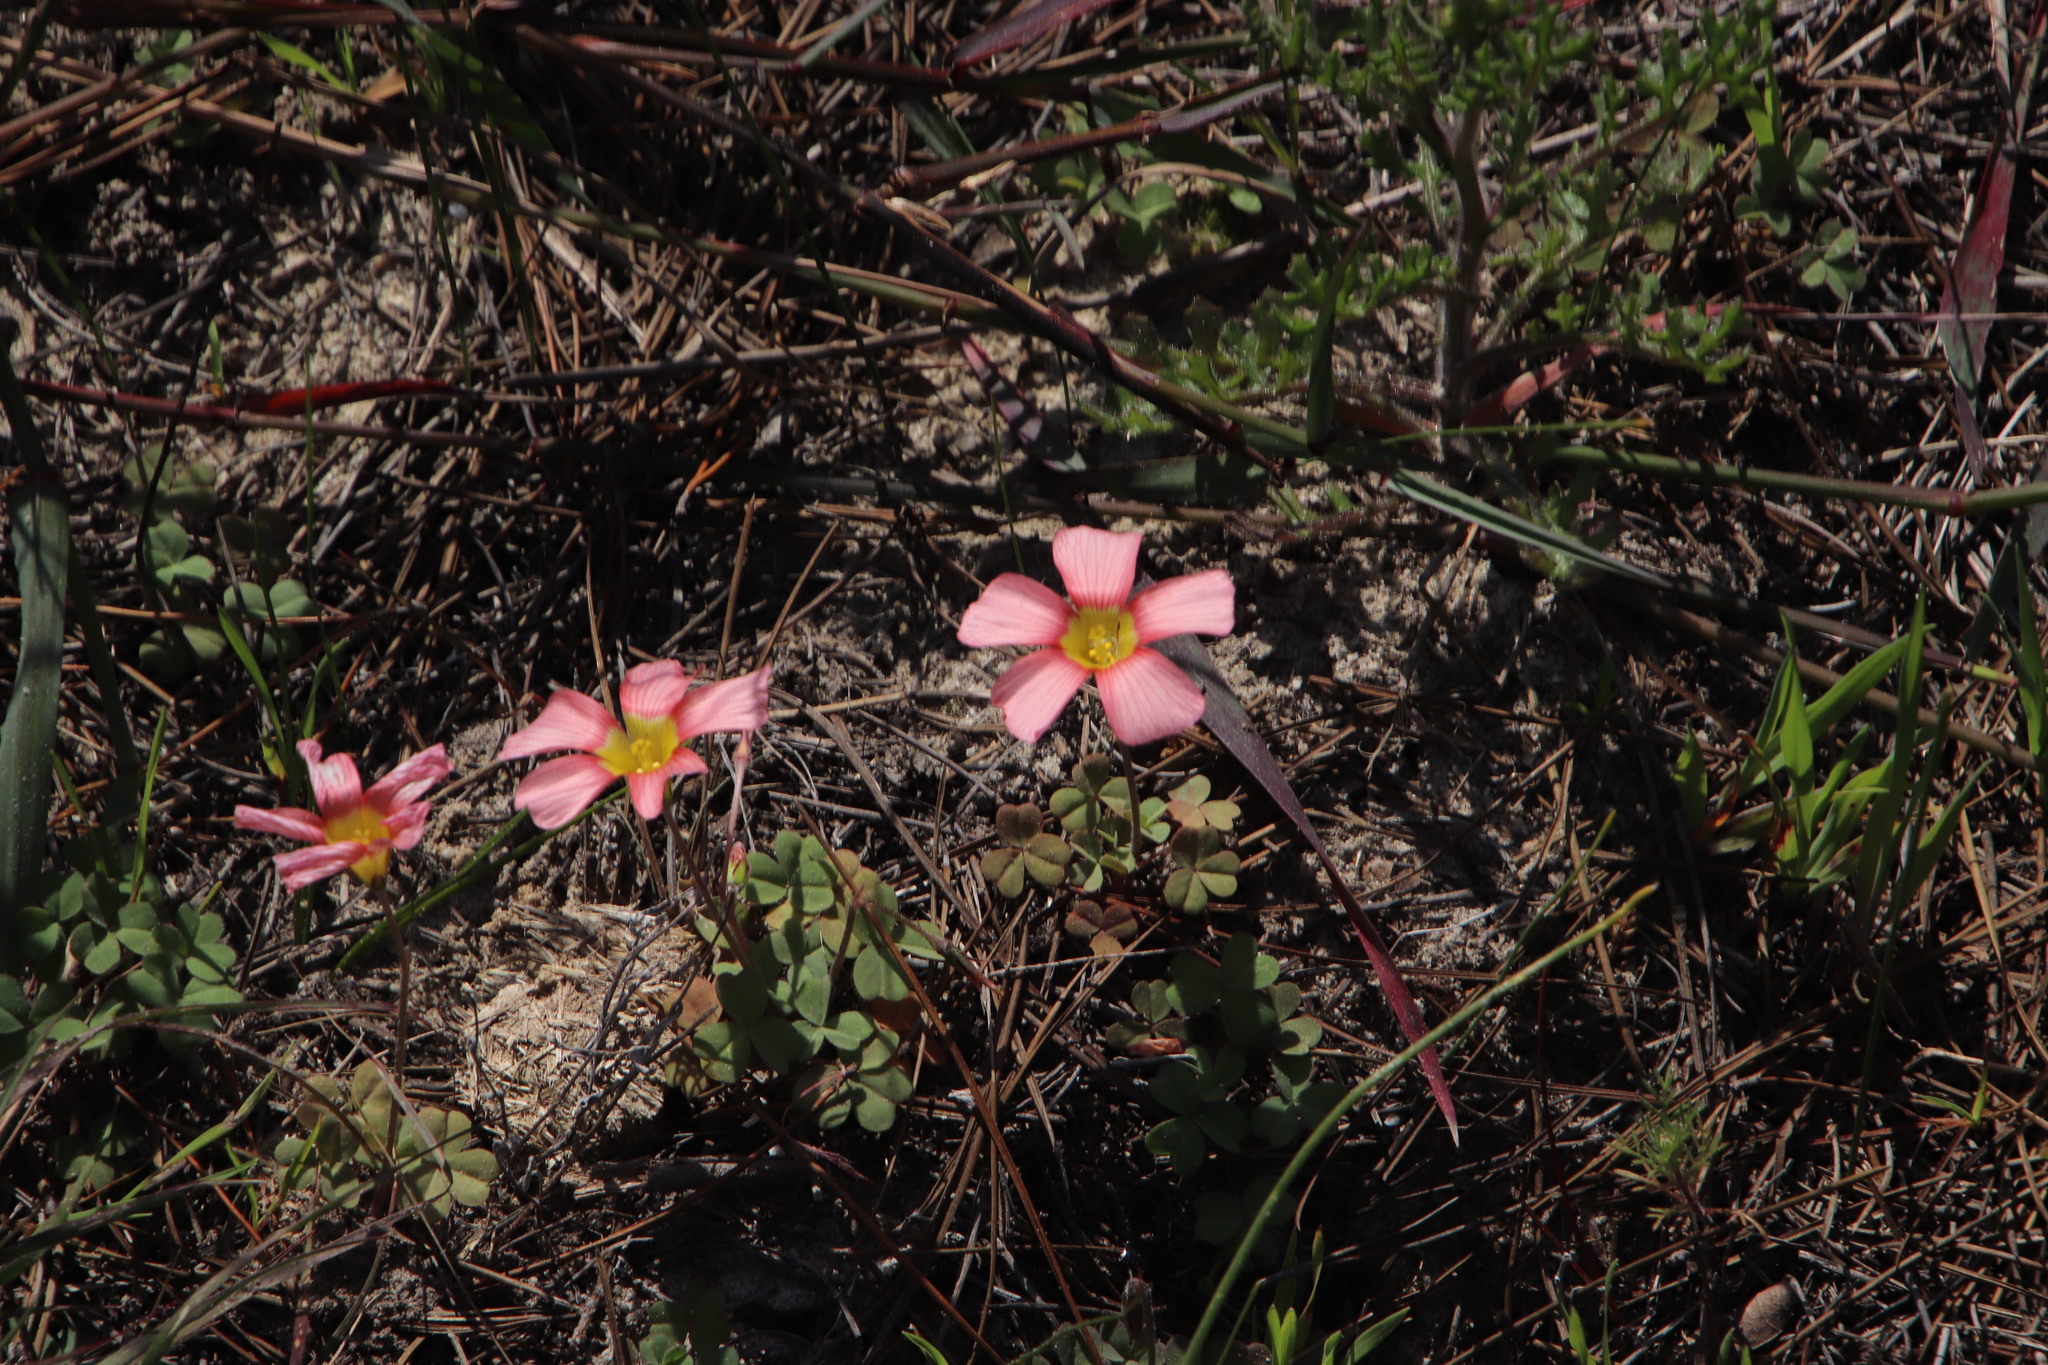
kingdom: Plantae
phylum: Tracheophyta
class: Magnoliopsida
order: Oxalidales
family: Oxalidaceae
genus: Oxalis
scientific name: Oxalis obtusa
